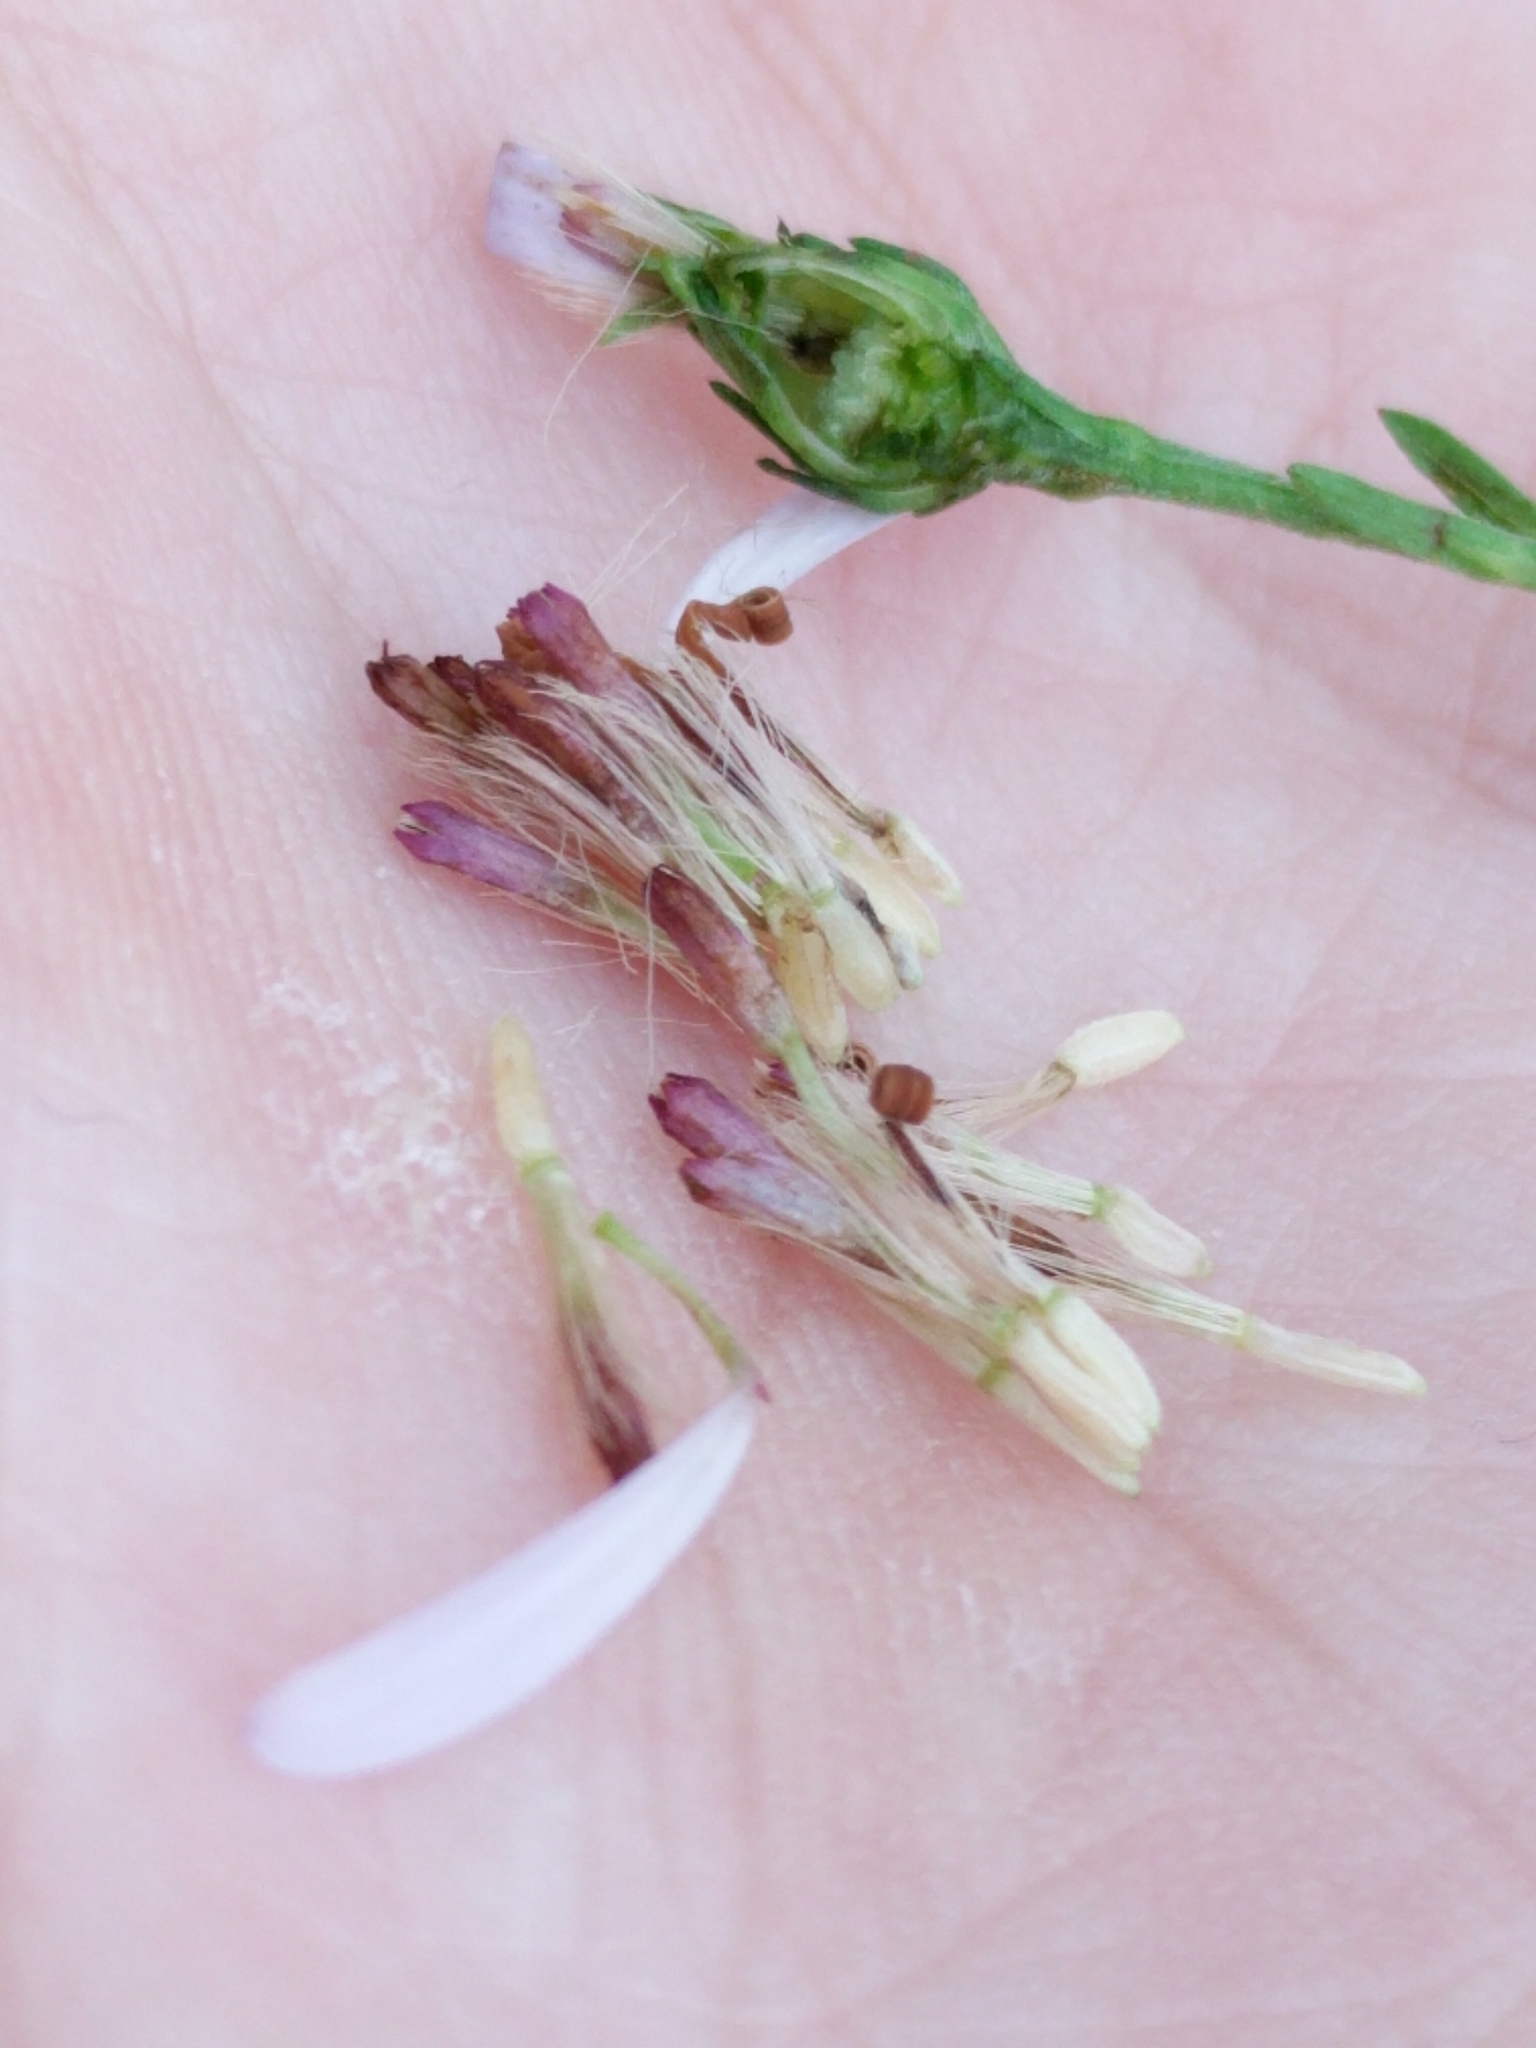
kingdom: Plantae
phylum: Tracheophyta
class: Magnoliopsida
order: Asterales
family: Asteraceae
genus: Symphyotrichum
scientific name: Symphyotrichum drummondii
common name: Drummond's aster
